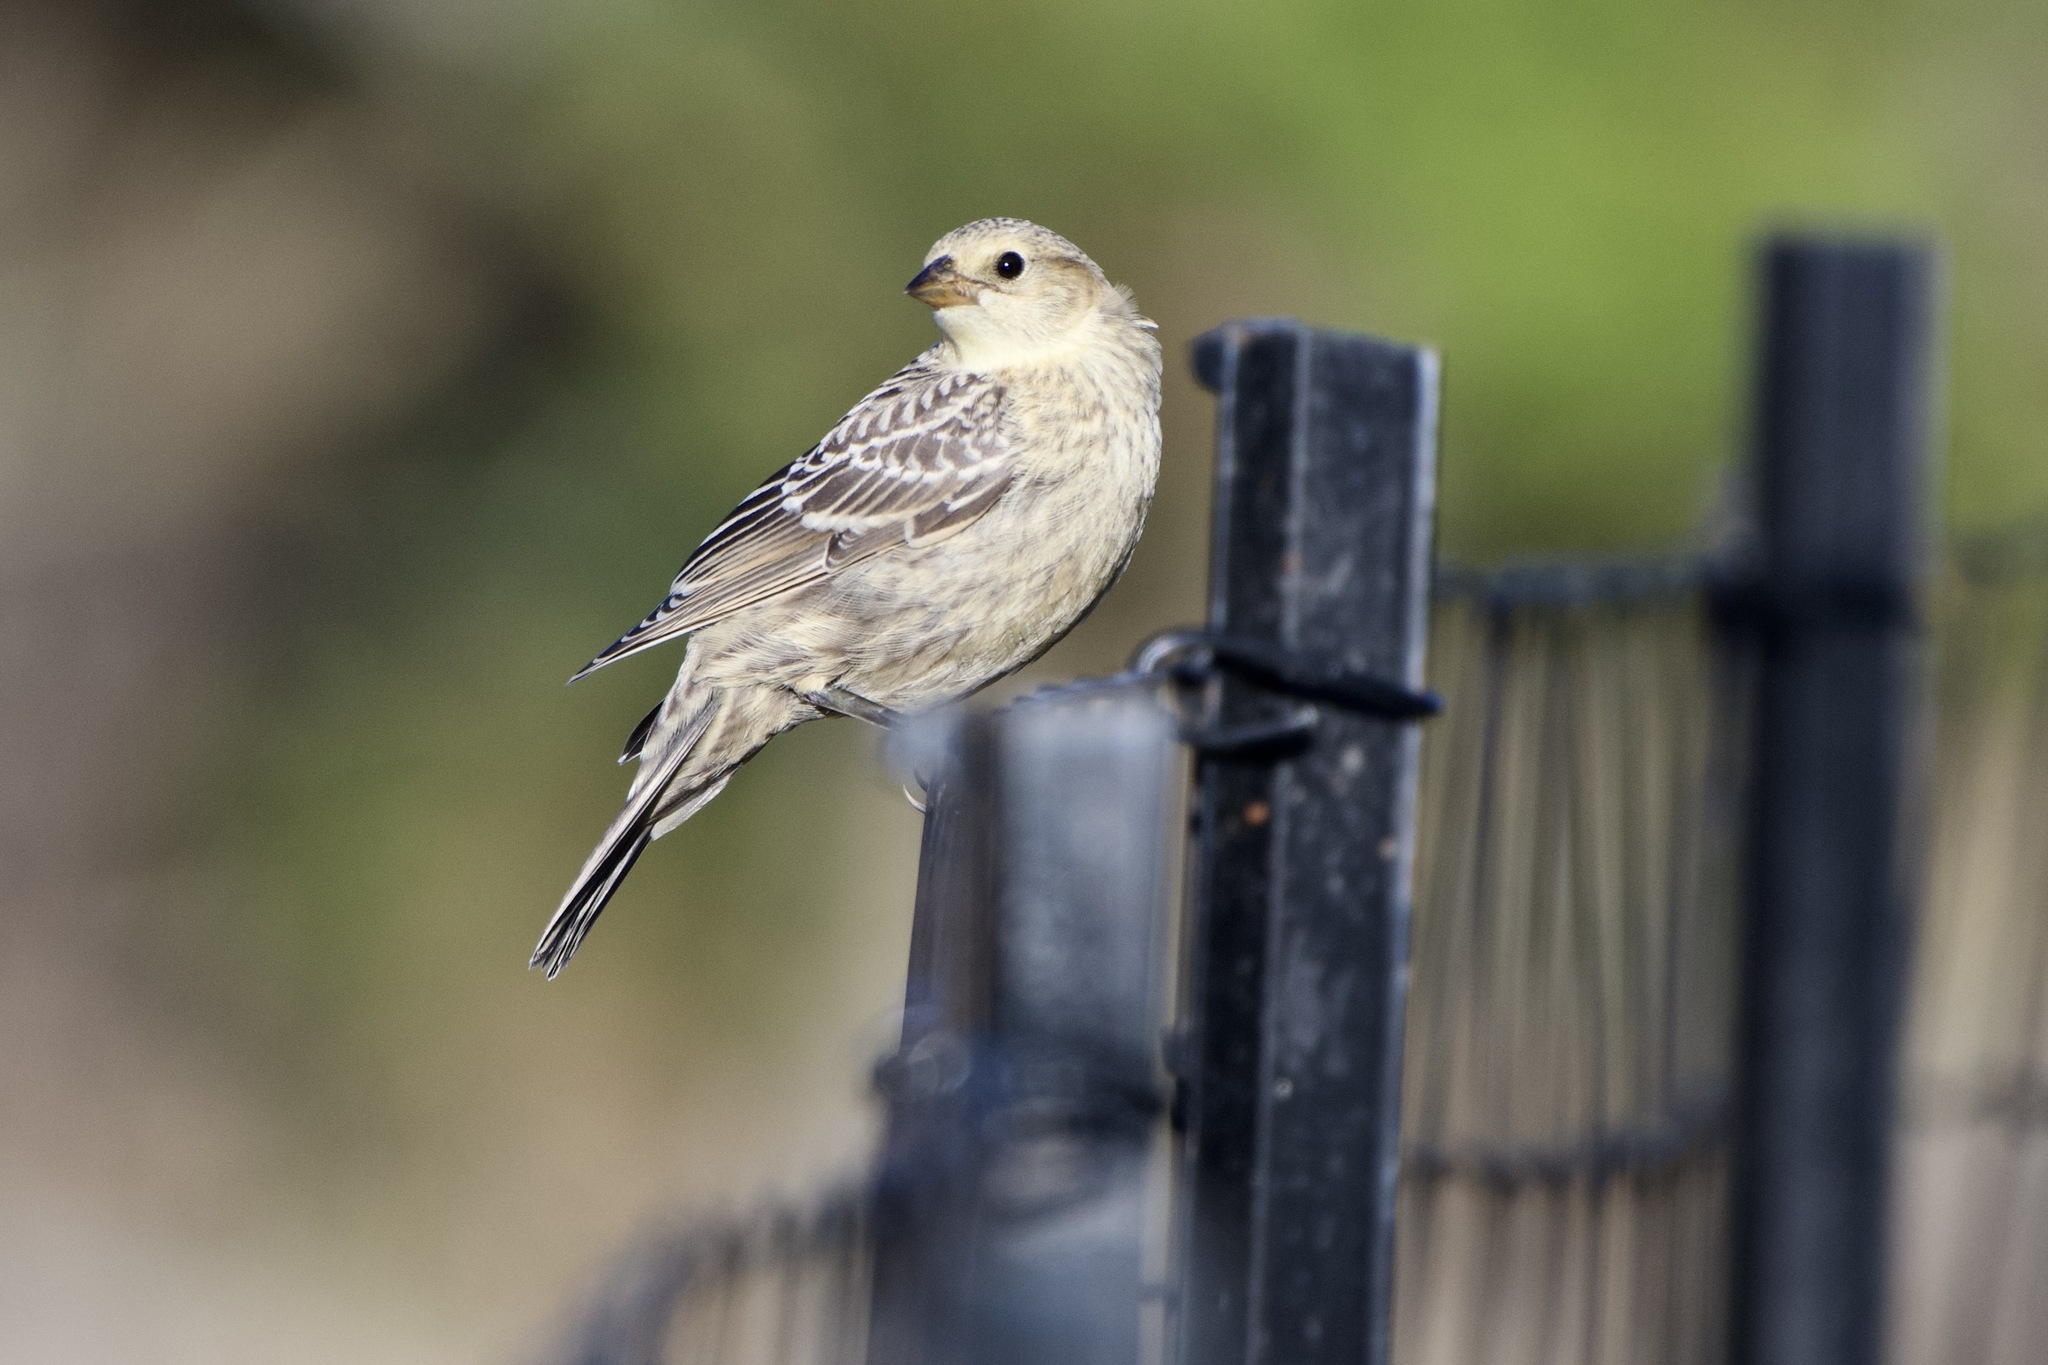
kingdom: Animalia
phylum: Chordata
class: Aves
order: Passeriformes
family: Icteridae
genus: Molothrus
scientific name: Molothrus ater
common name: Brown-headed cowbird
